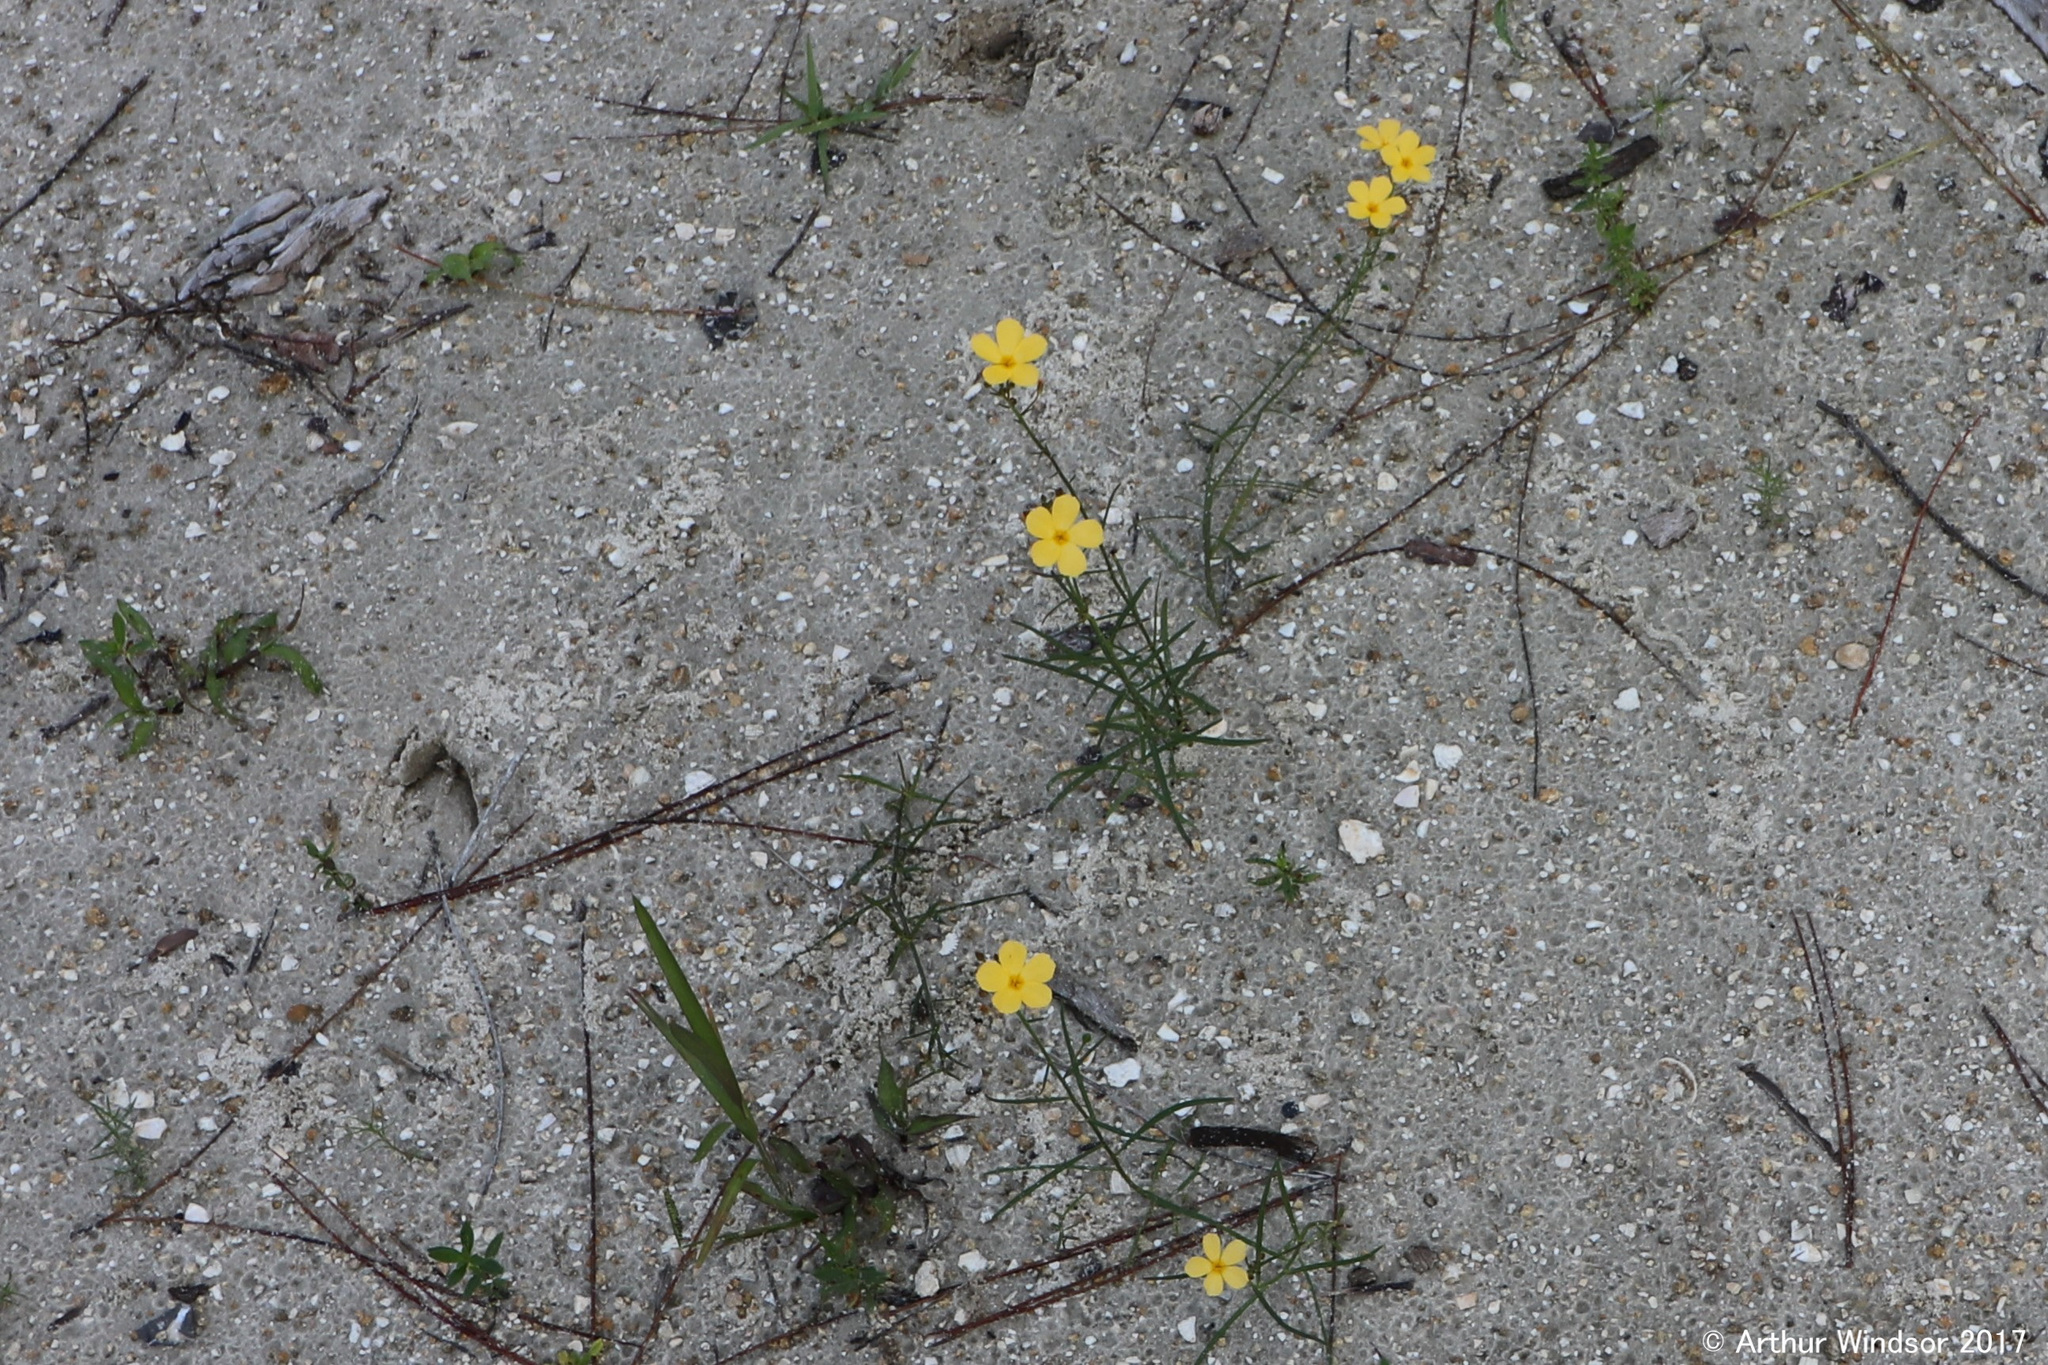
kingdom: Plantae
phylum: Tracheophyta
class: Magnoliopsida
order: Malpighiales
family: Turneraceae
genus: Piriqueta
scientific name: Piriqueta cistoides
